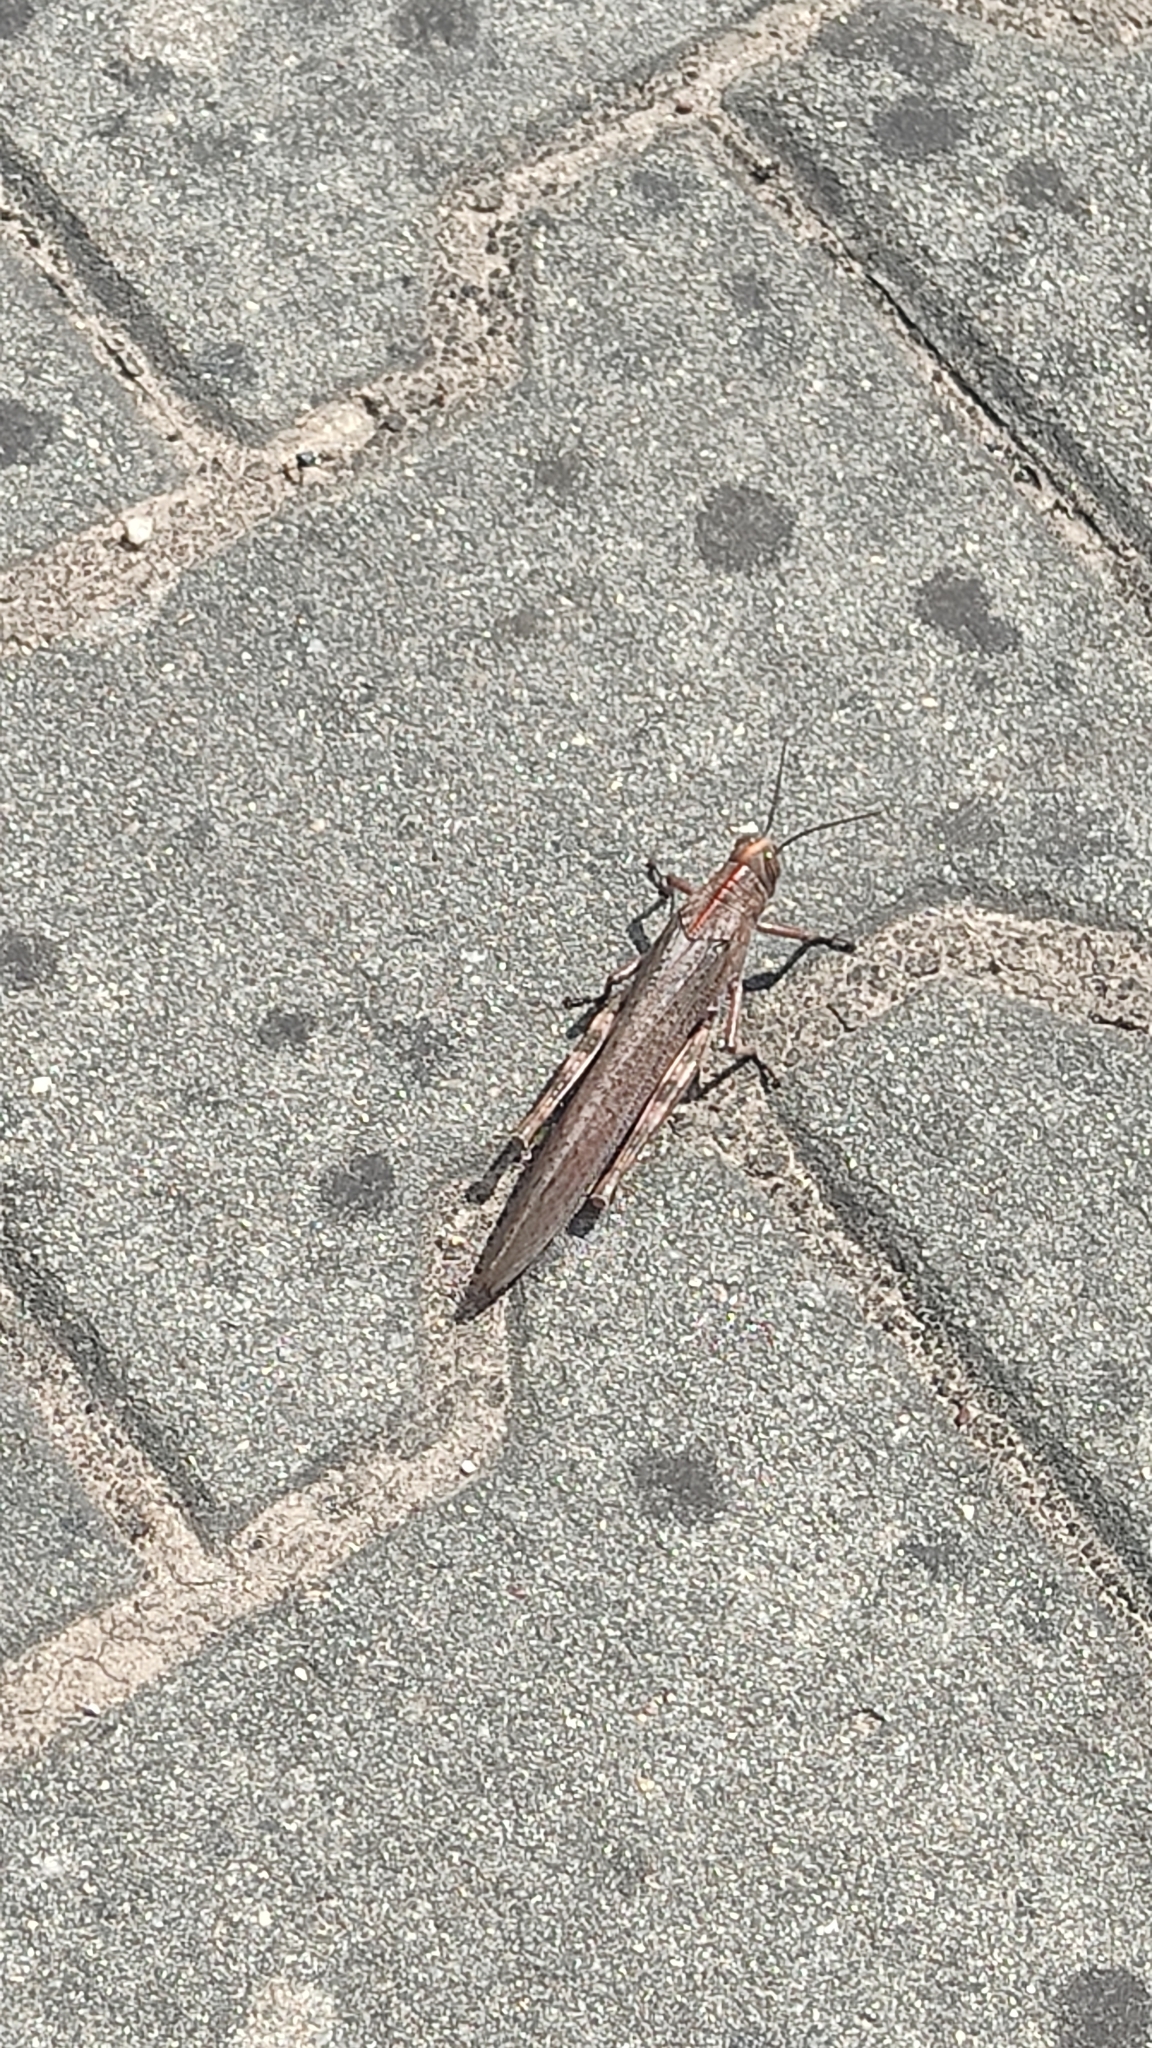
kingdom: Animalia
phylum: Arthropoda
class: Insecta
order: Orthoptera
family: Acrididae
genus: Anacridium
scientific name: Anacridium aegyptium
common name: Egyptian grasshopper
